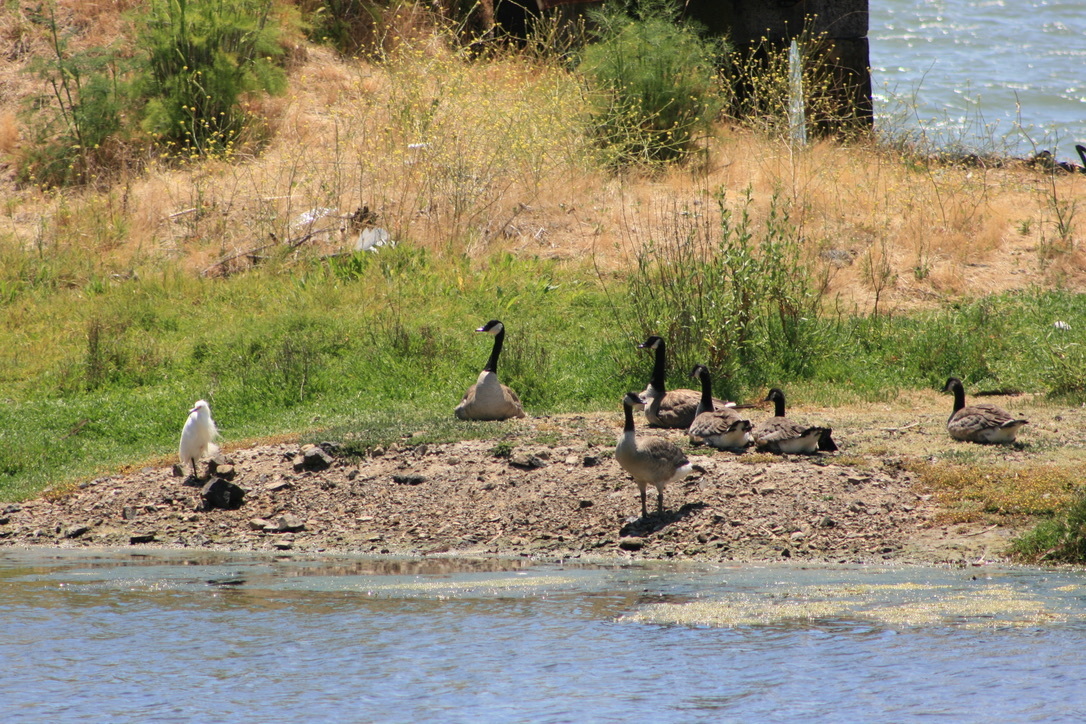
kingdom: Animalia
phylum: Chordata
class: Aves
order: Pelecaniformes
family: Ardeidae
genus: Egretta
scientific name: Egretta thula
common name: Snowy egret
